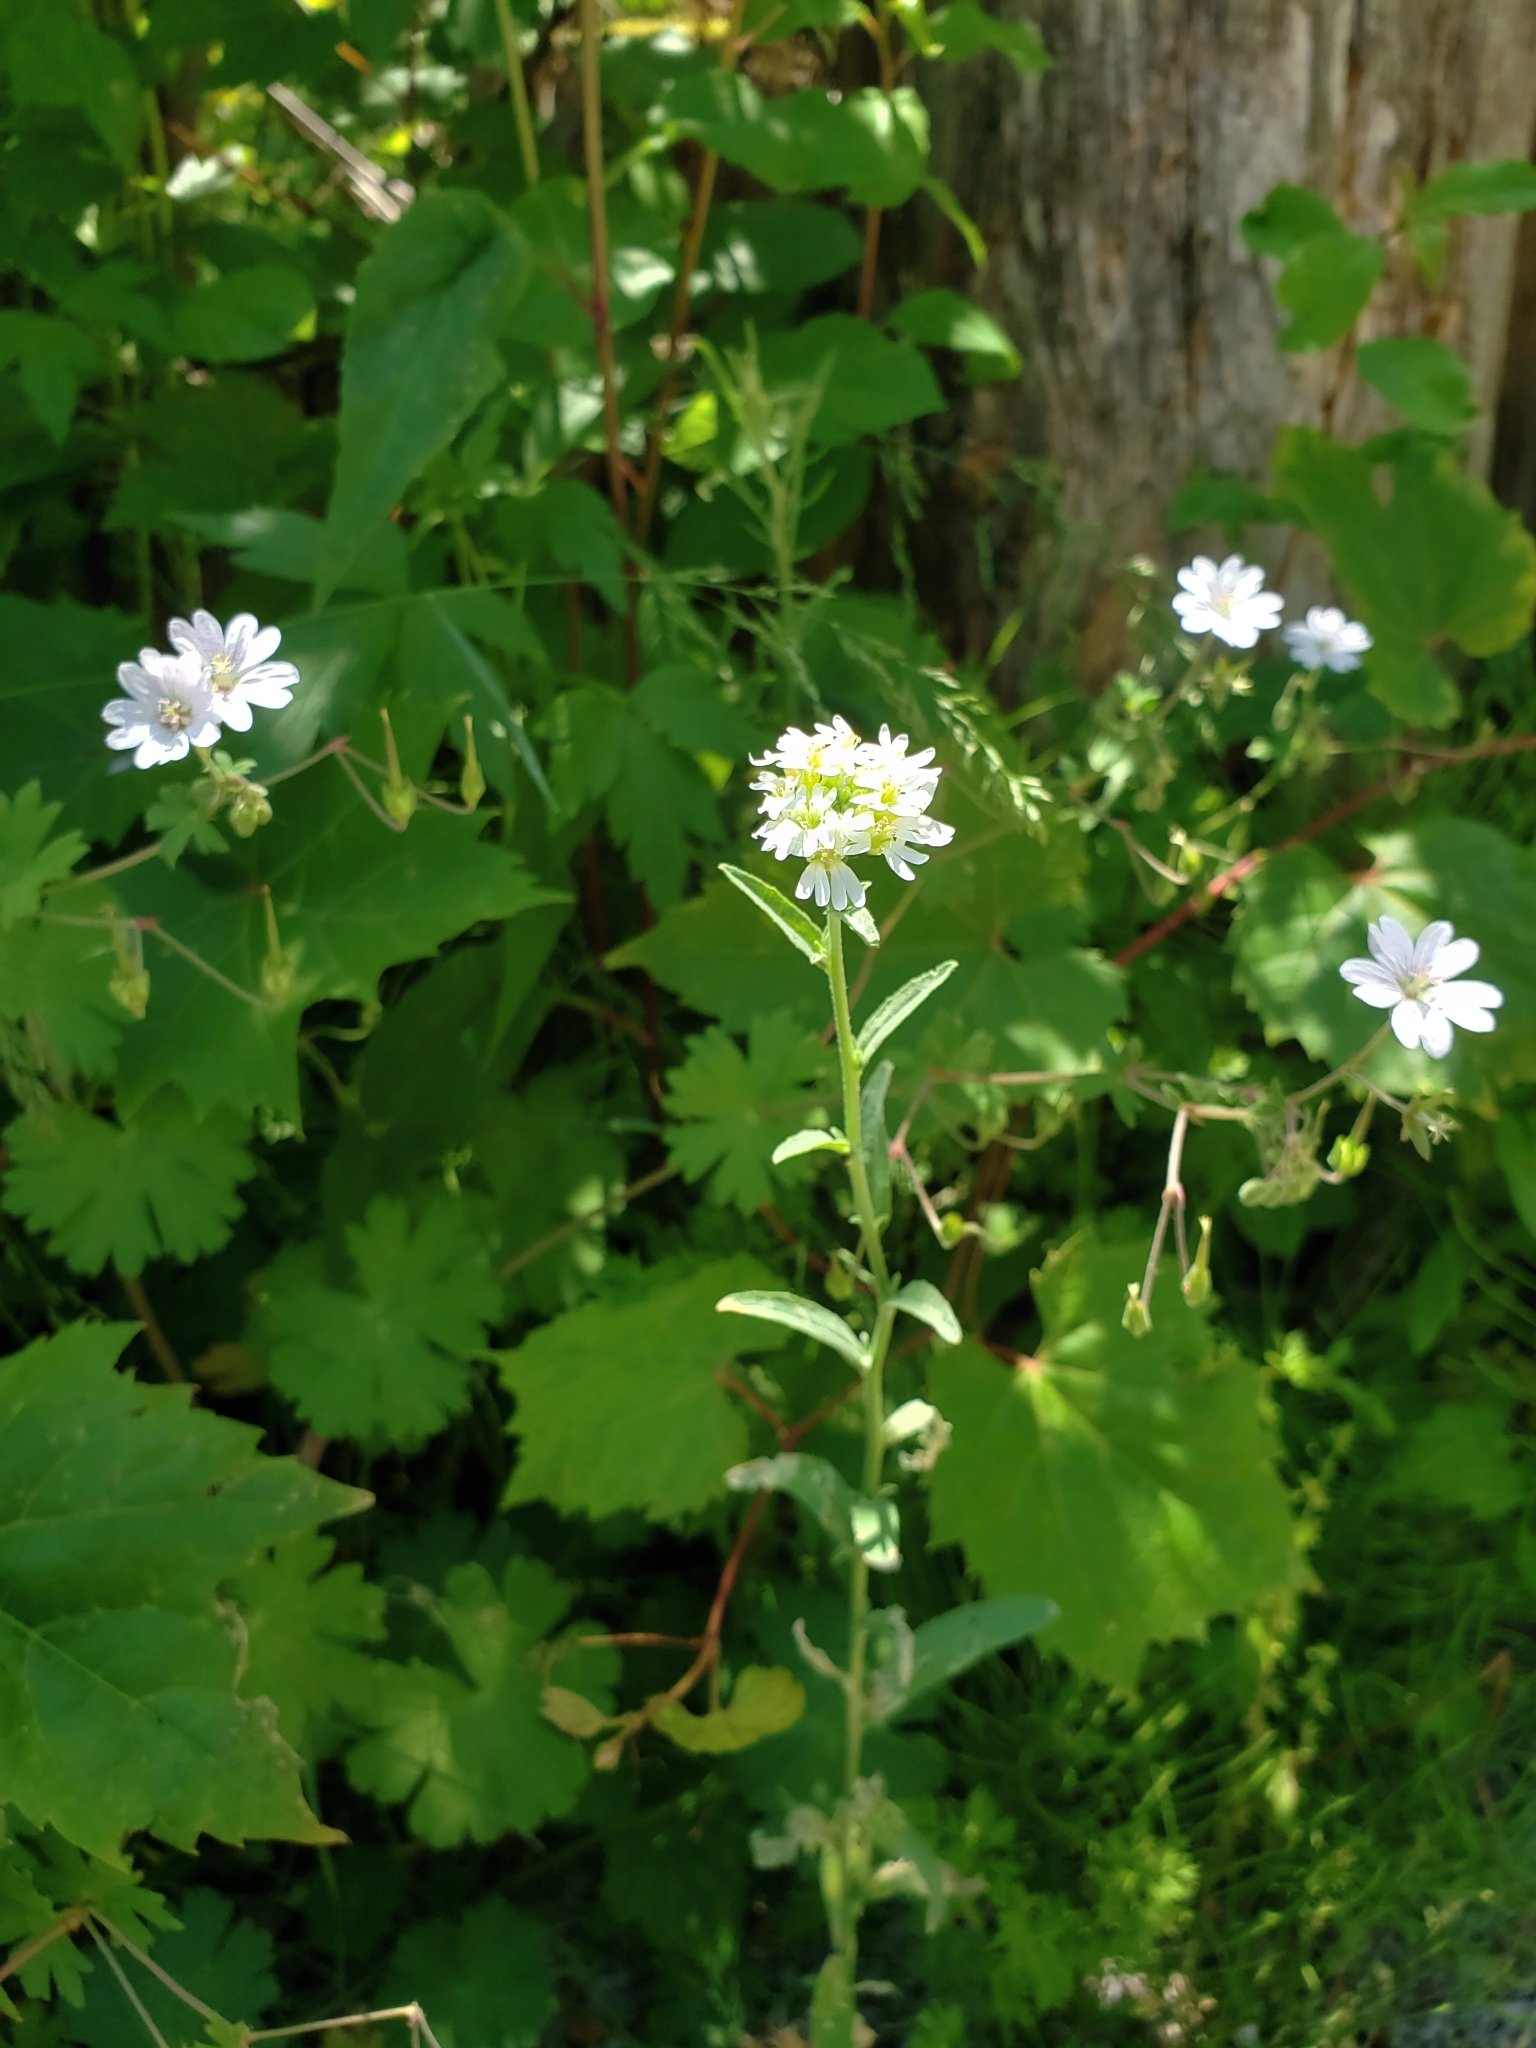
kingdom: Plantae
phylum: Tracheophyta
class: Magnoliopsida
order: Brassicales
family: Brassicaceae
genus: Berteroa
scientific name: Berteroa incana
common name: Hoary alison
